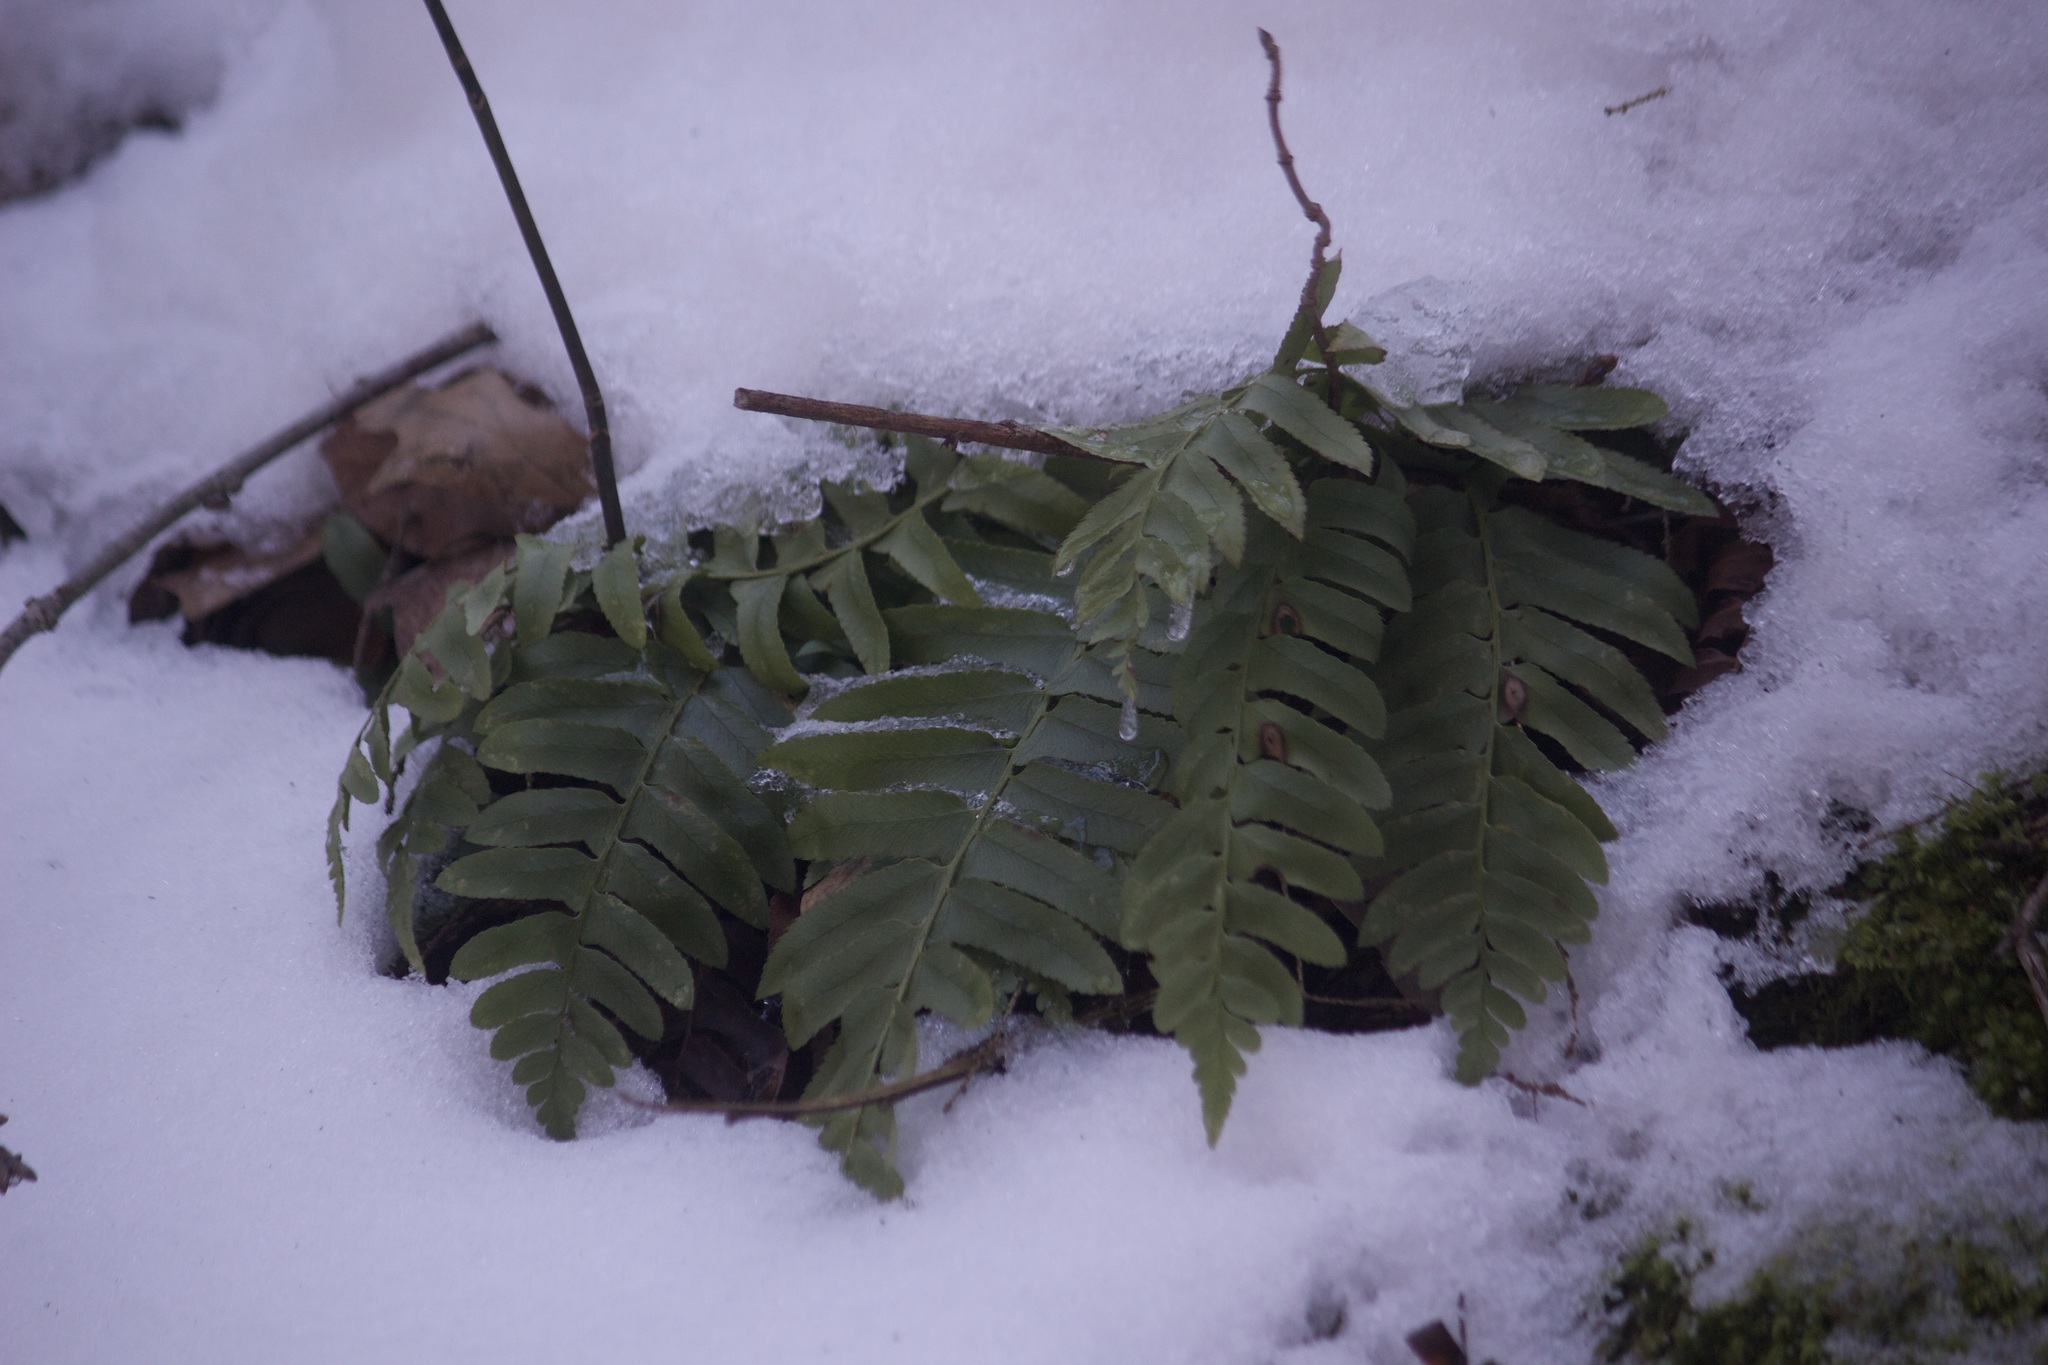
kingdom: Plantae
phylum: Tracheophyta
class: Polypodiopsida
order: Polypodiales
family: Dryopteridaceae
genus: Polystichum
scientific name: Polystichum acrostichoides
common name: Christmas fern
